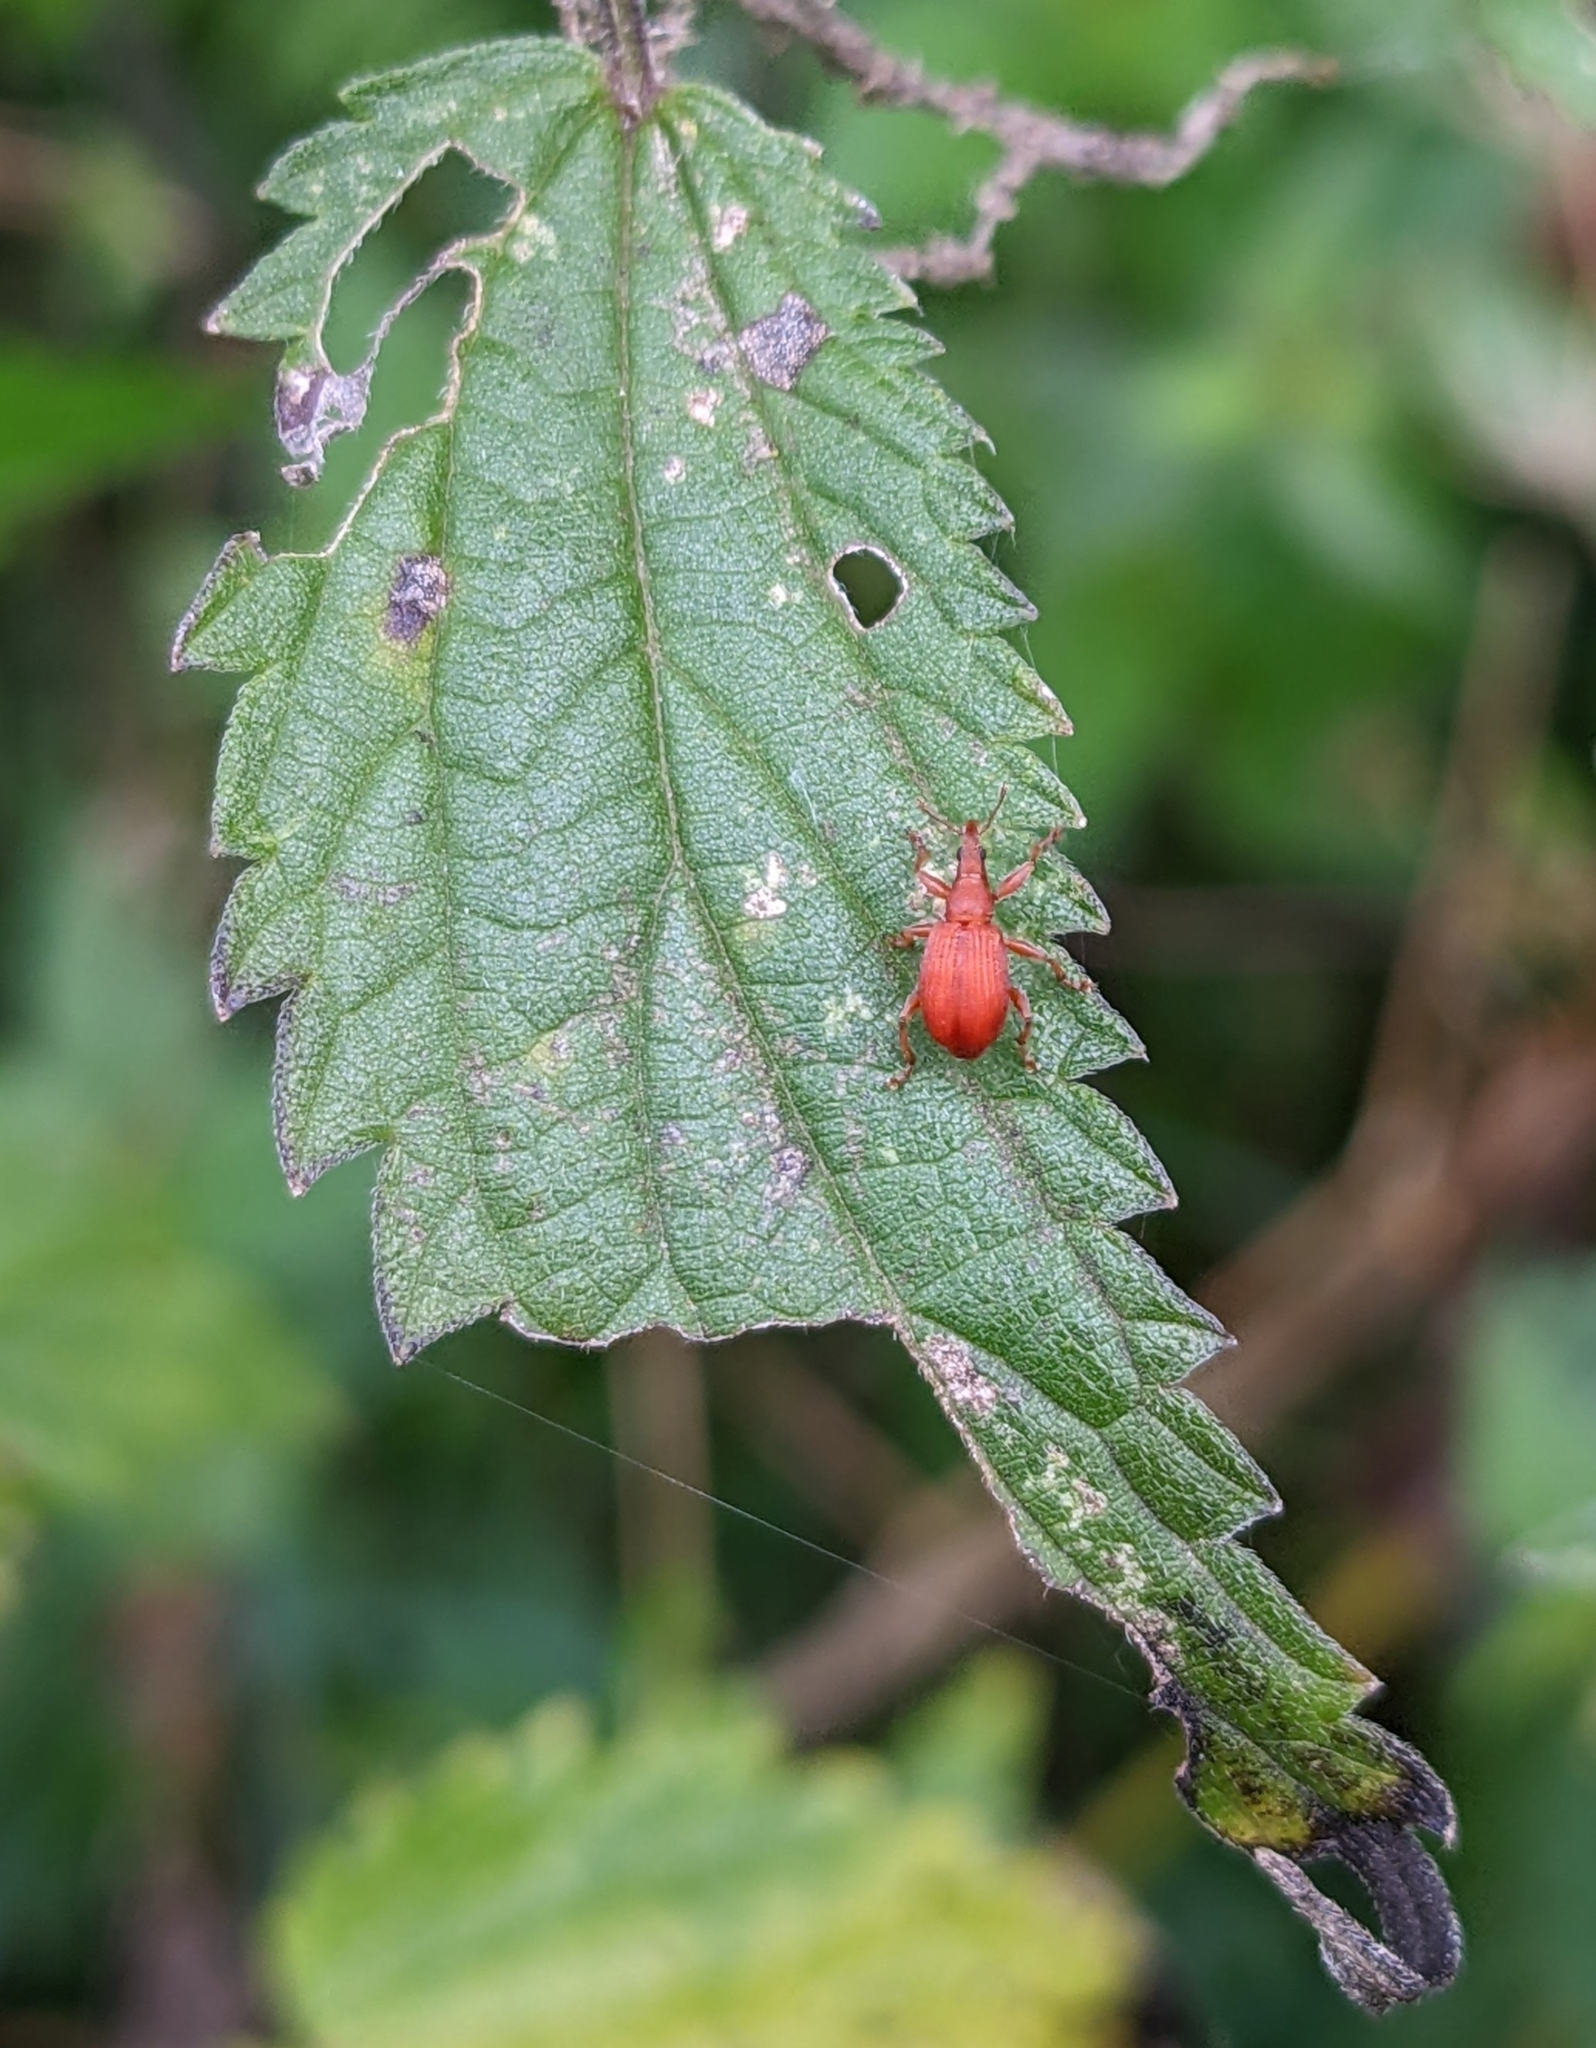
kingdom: Animalia
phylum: Arthropoda
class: Insecta
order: Coleoptera
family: Apionidae
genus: Apion
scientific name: Apion frumentarium
